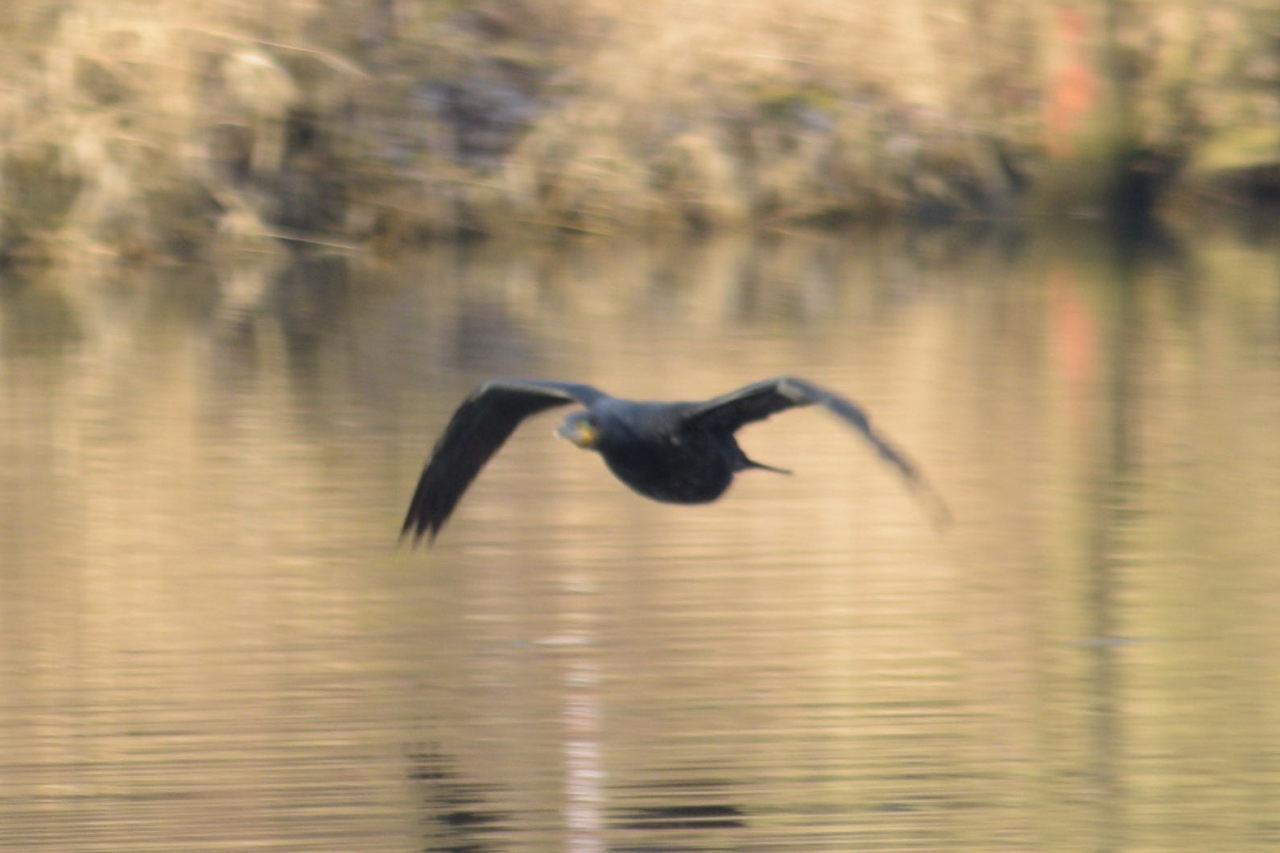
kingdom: Animalia
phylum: Chordata
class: Aves
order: Suliformes
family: Phalacrocoracidae
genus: Phalacrocorax
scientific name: Phalacrocorax carbo
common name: Great cormorant
